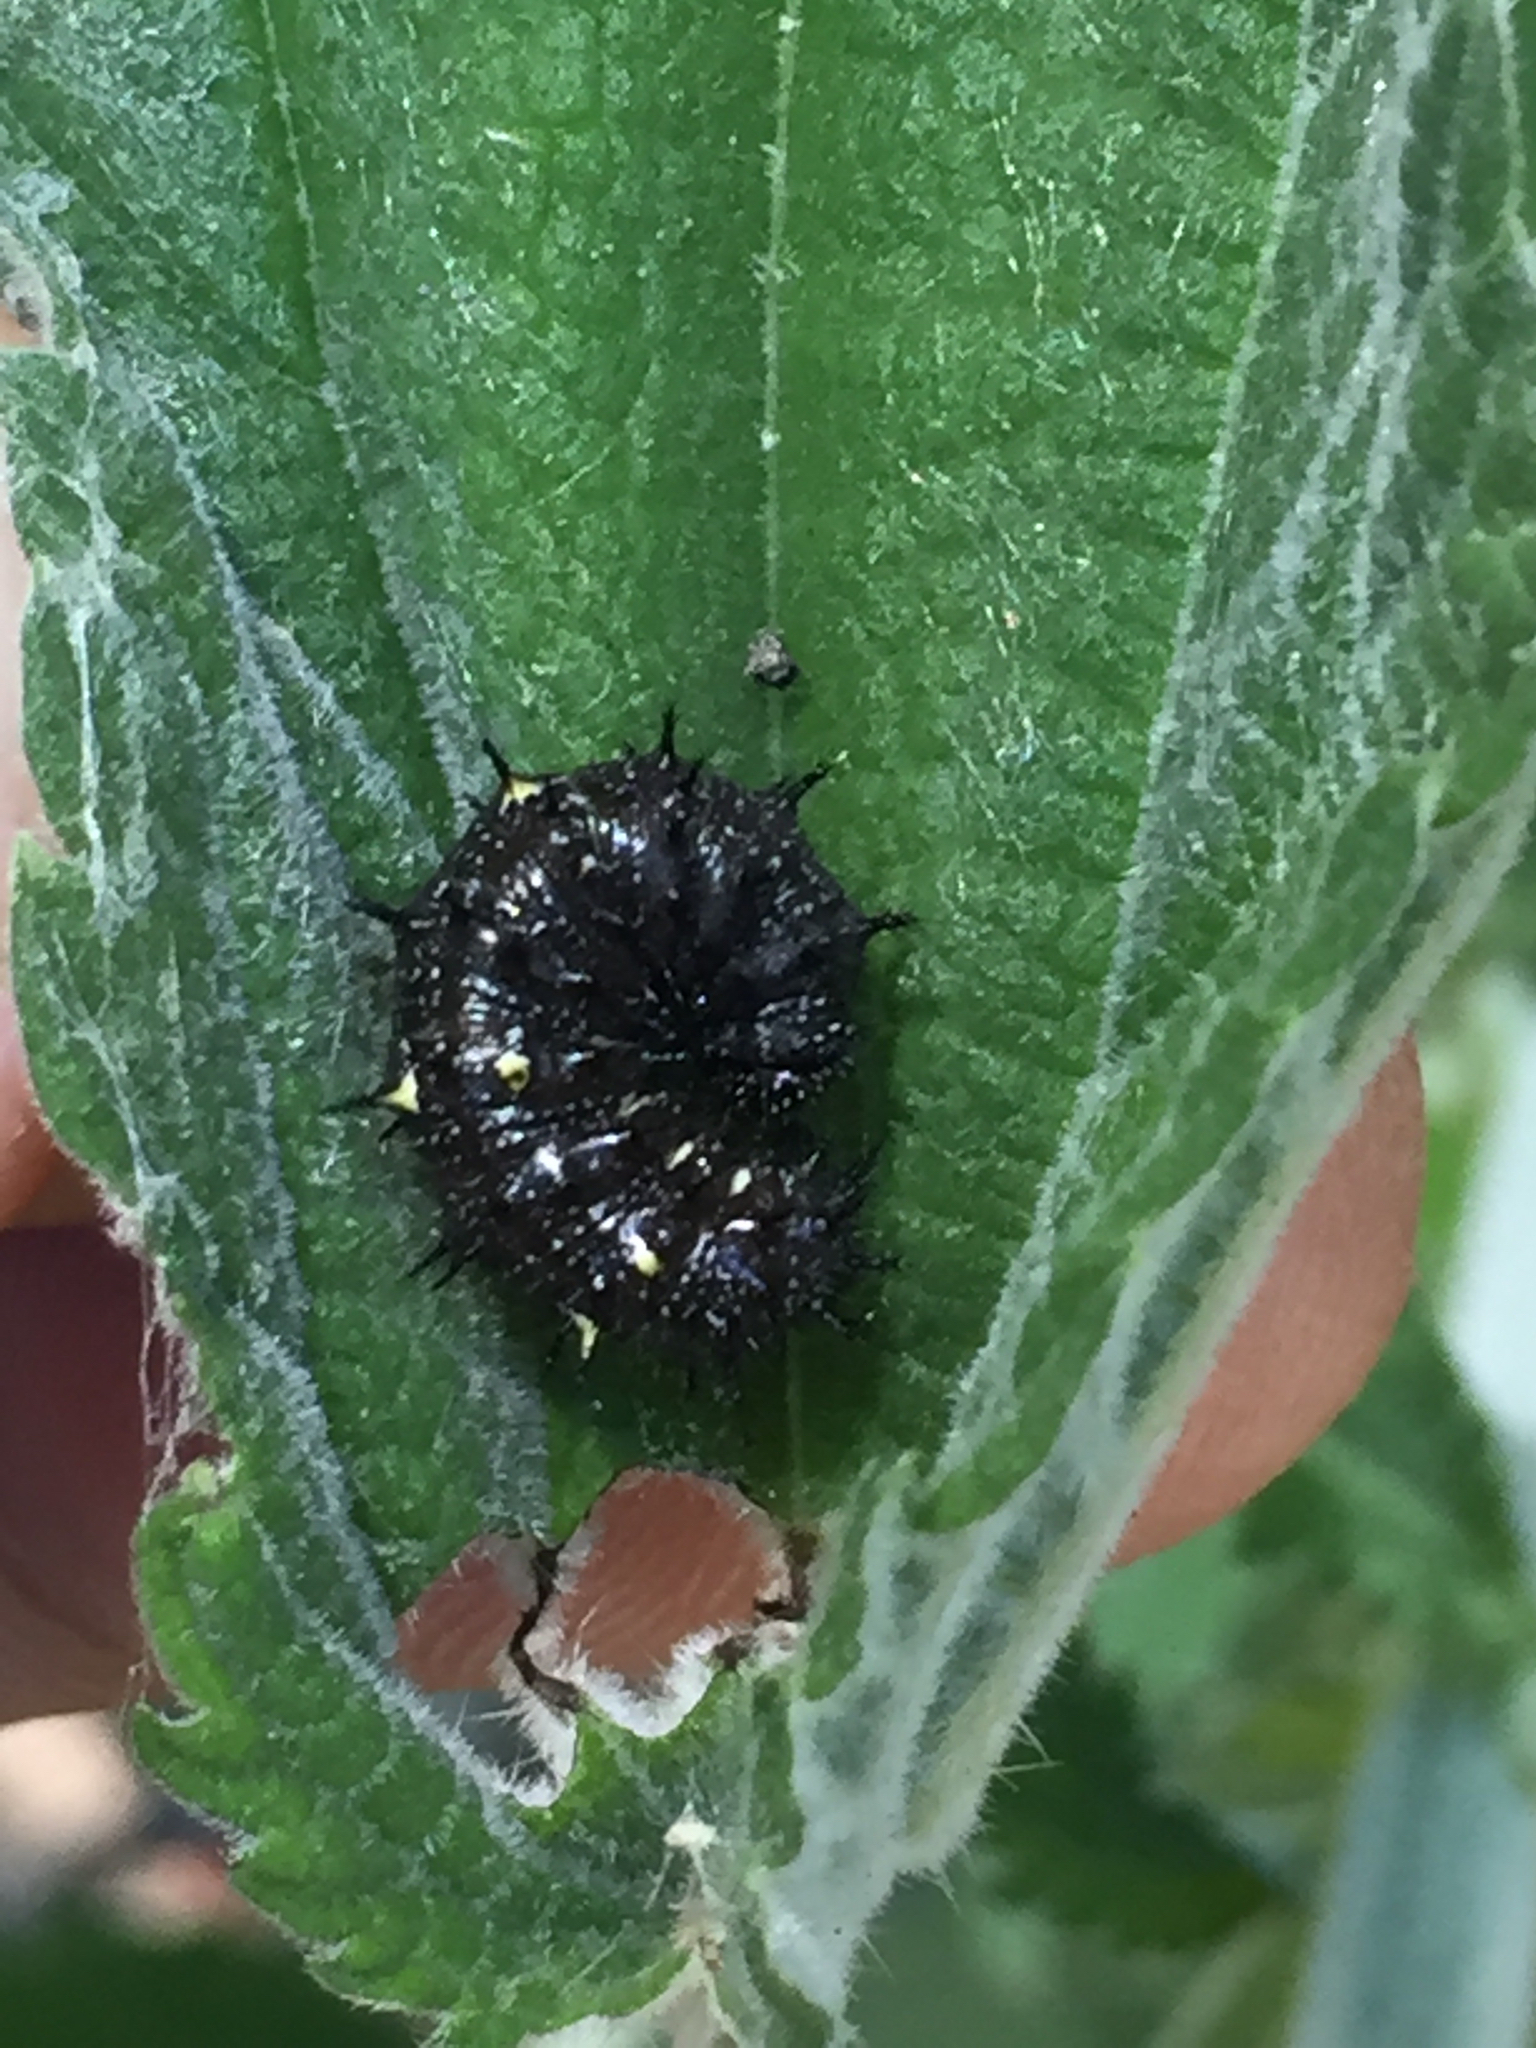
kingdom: Animalia
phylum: Arthropoda
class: Insecta
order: Lepidoptera
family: Nymphalidae
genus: Vanessa
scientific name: Vanessa atalanta
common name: Red admiral
